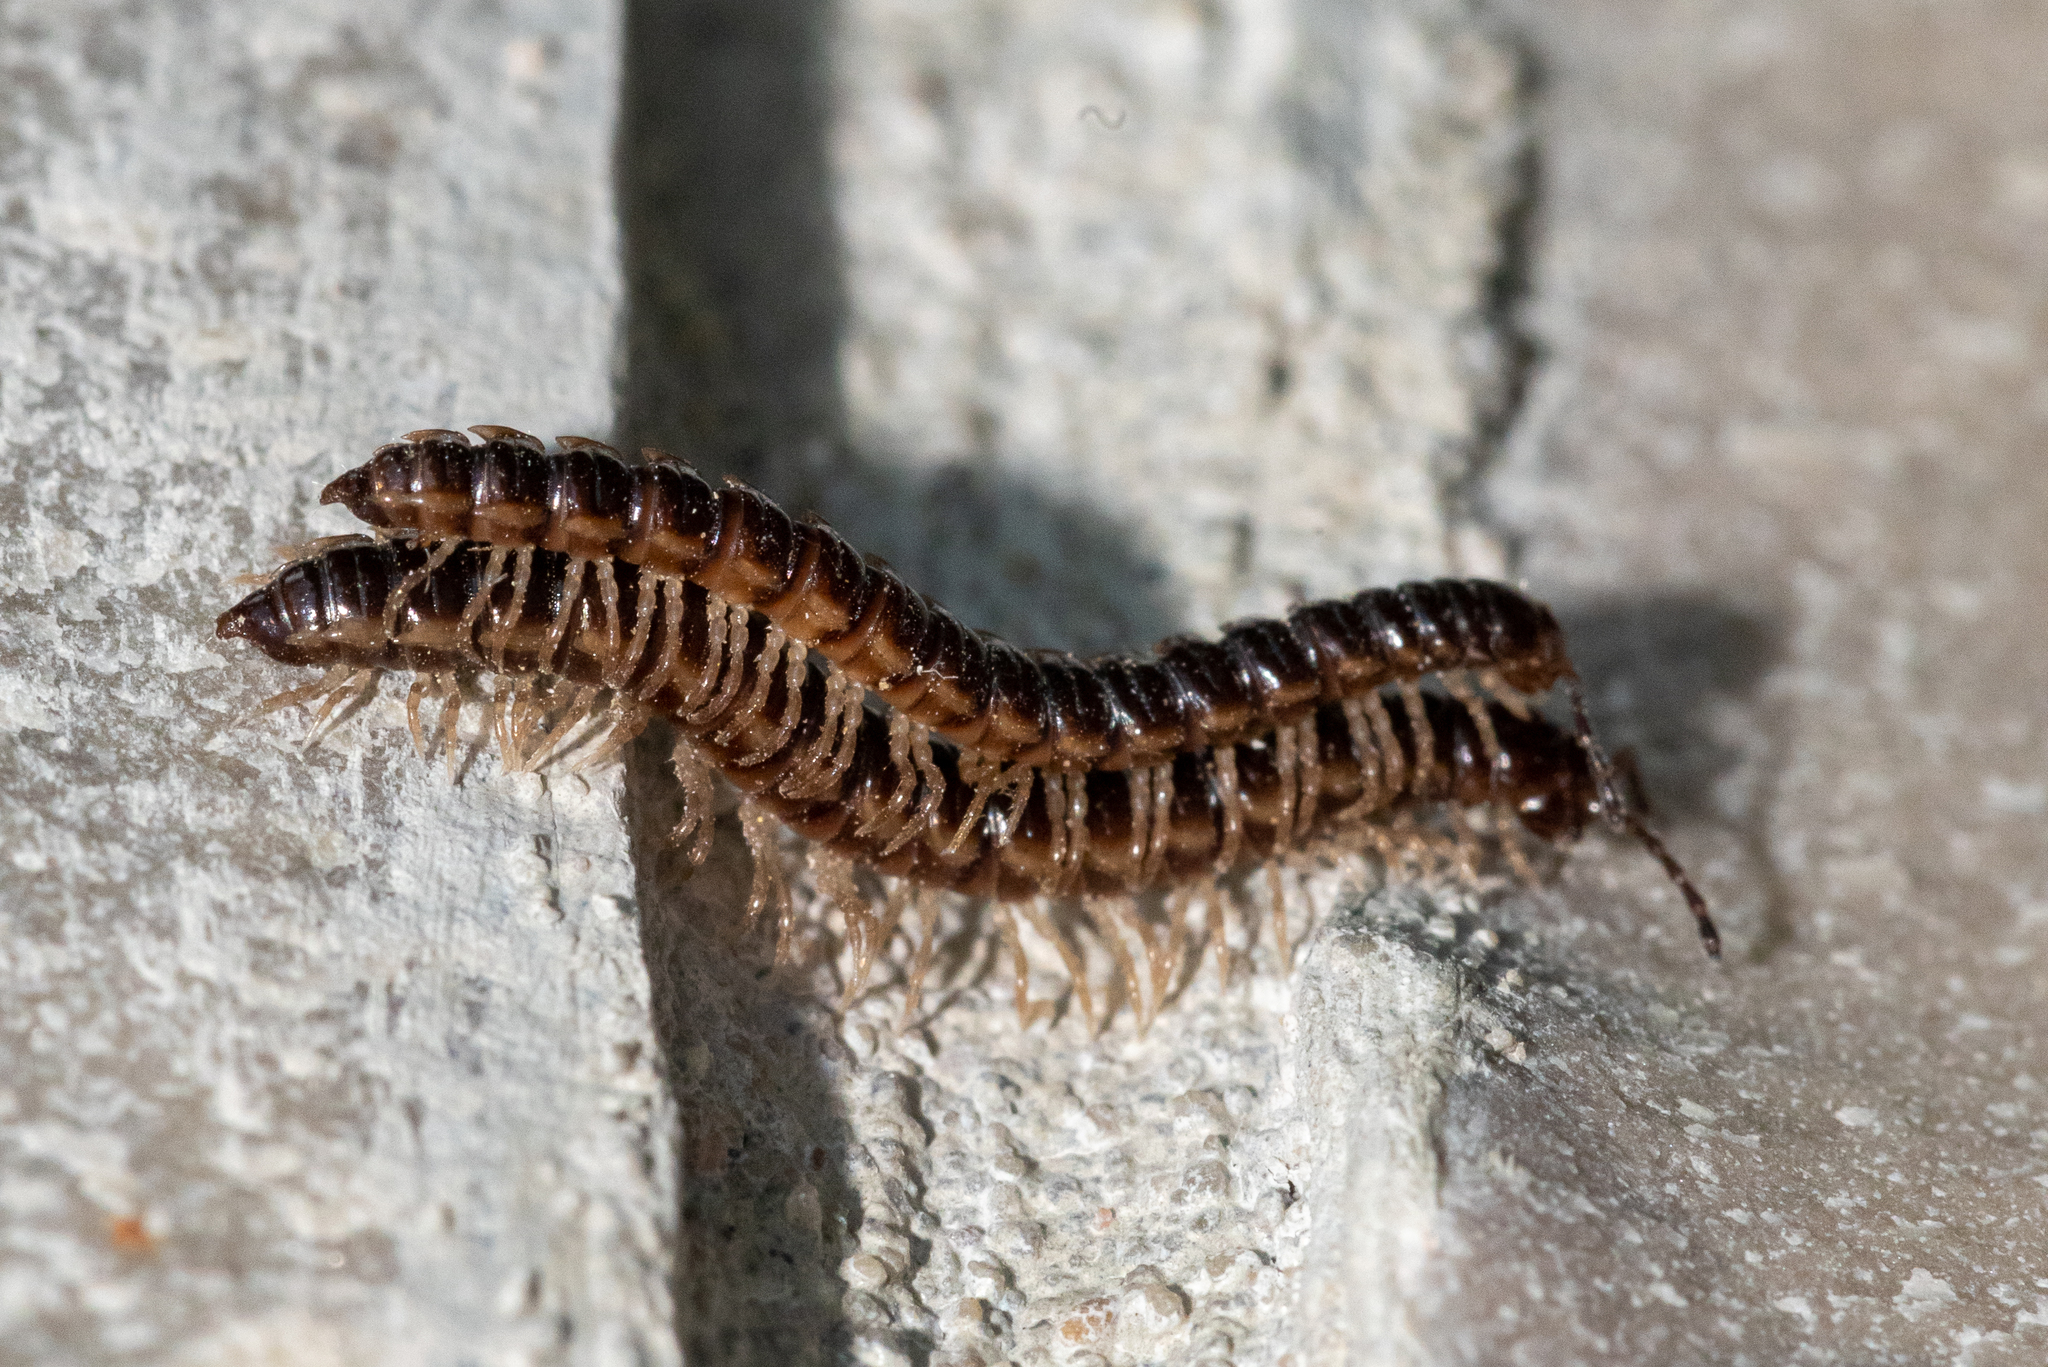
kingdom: Animalia
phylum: Arthropoda
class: Diplopoda
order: Polydesmida
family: Paradoxosomatidae
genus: Oxidus
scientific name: Oxidus gracilis
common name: Greenhouse millipede
